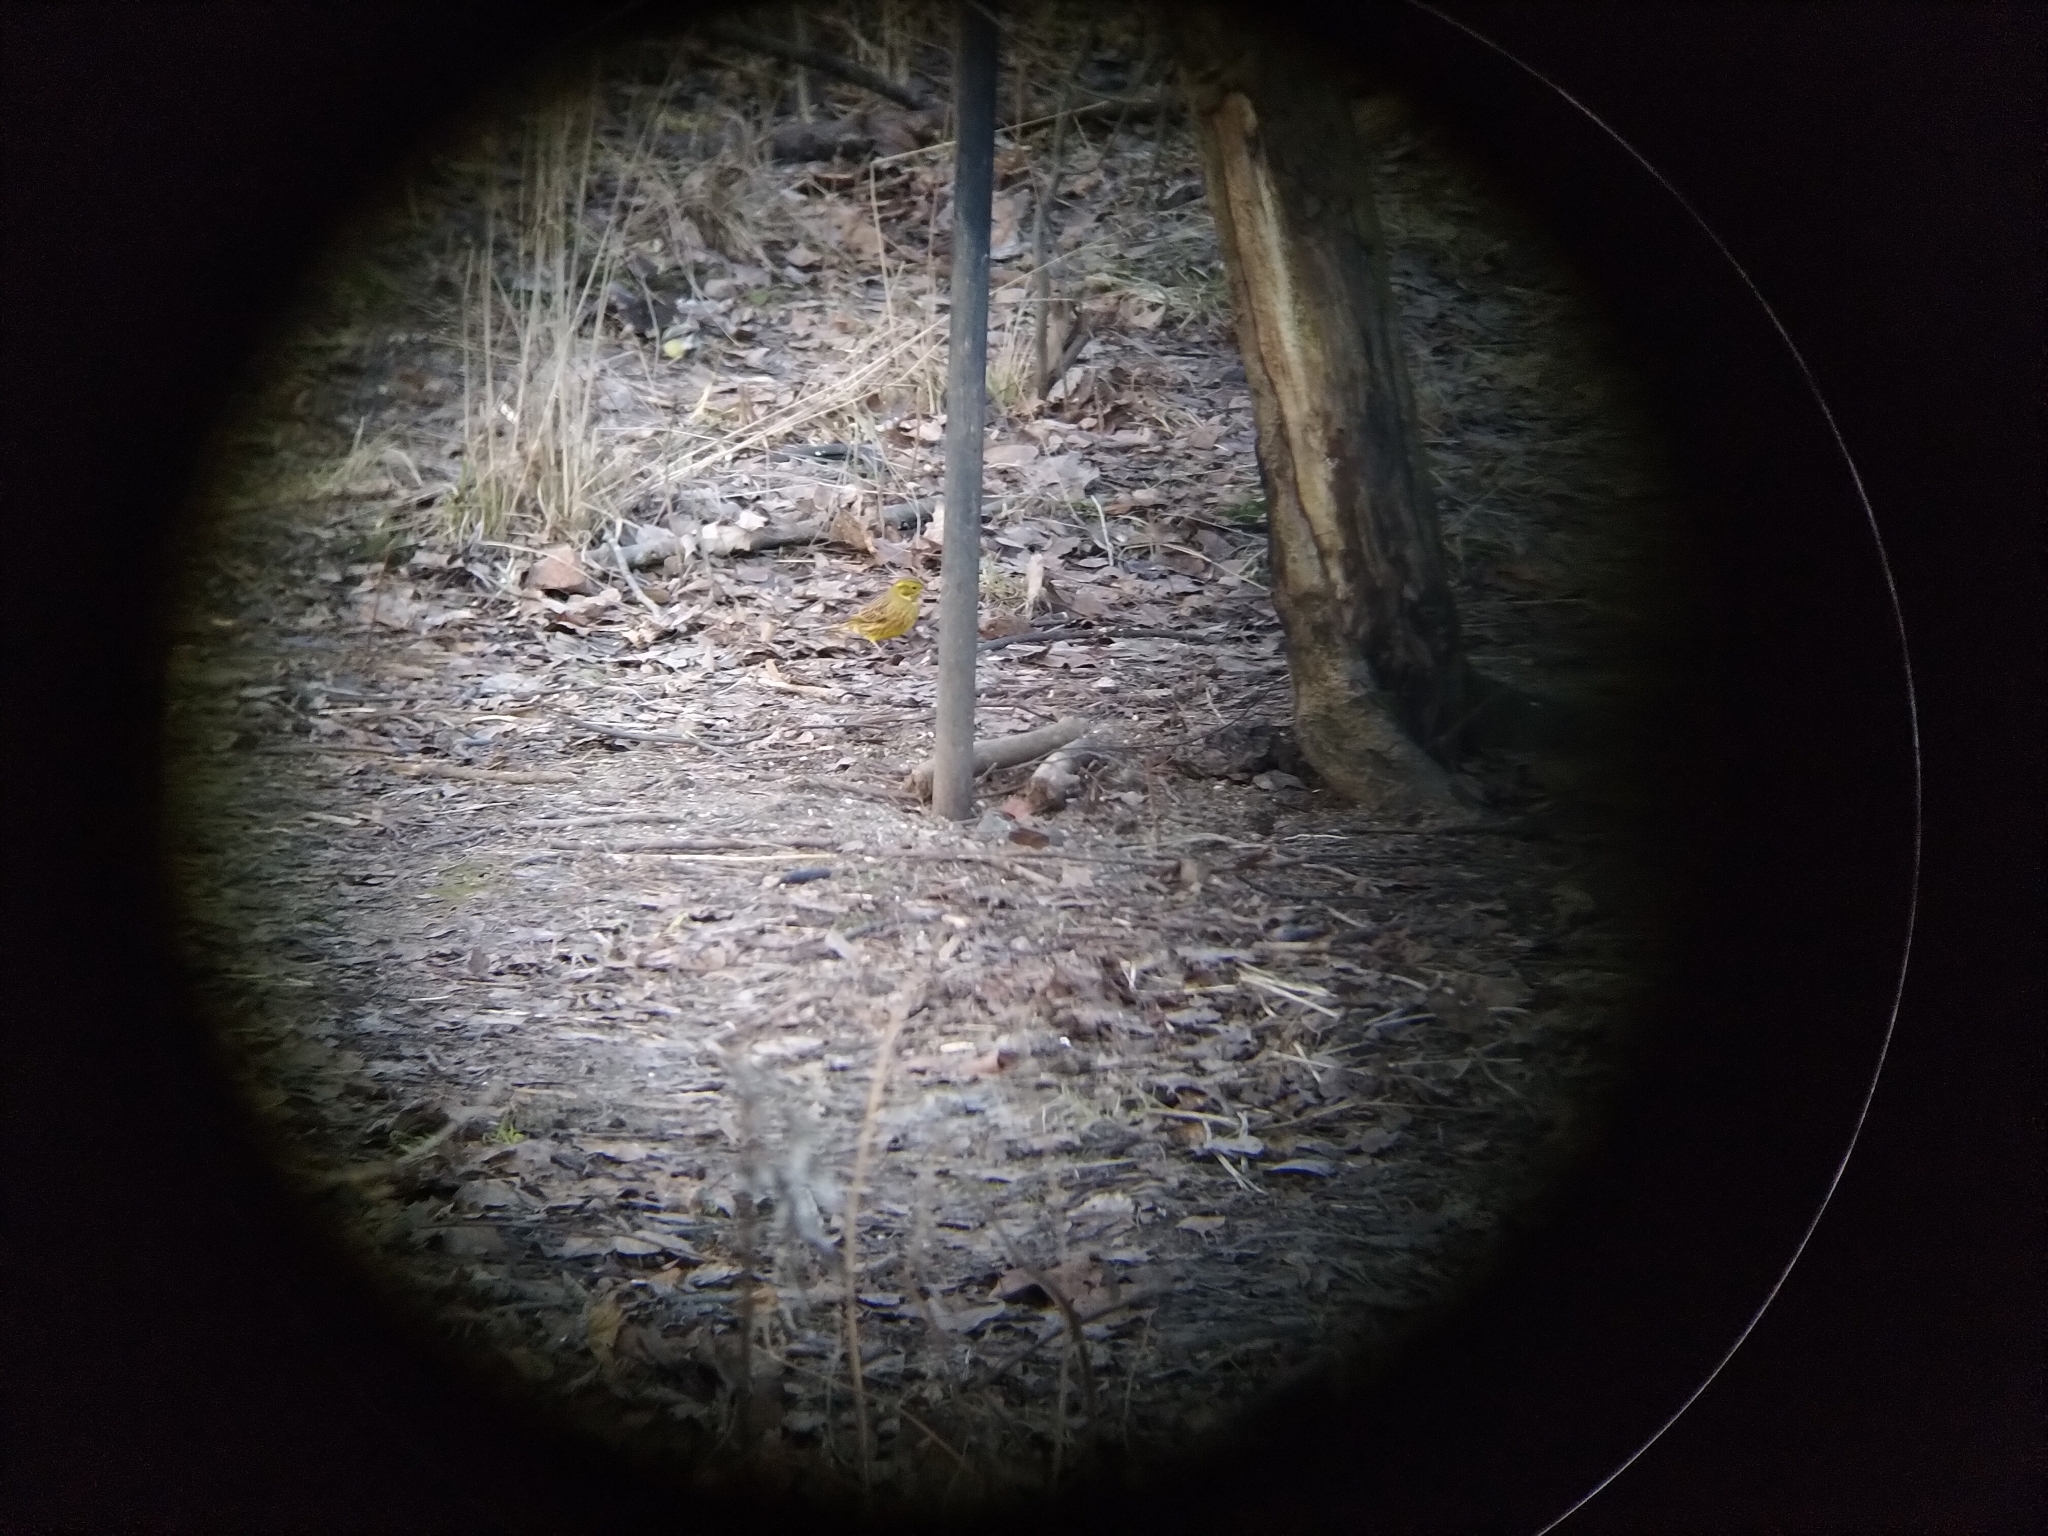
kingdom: Animalia
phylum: Chordata
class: Aves
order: Passeriformes
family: Emberizidae
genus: Emberiza
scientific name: Emberiza citrinella
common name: Yellowhammer
